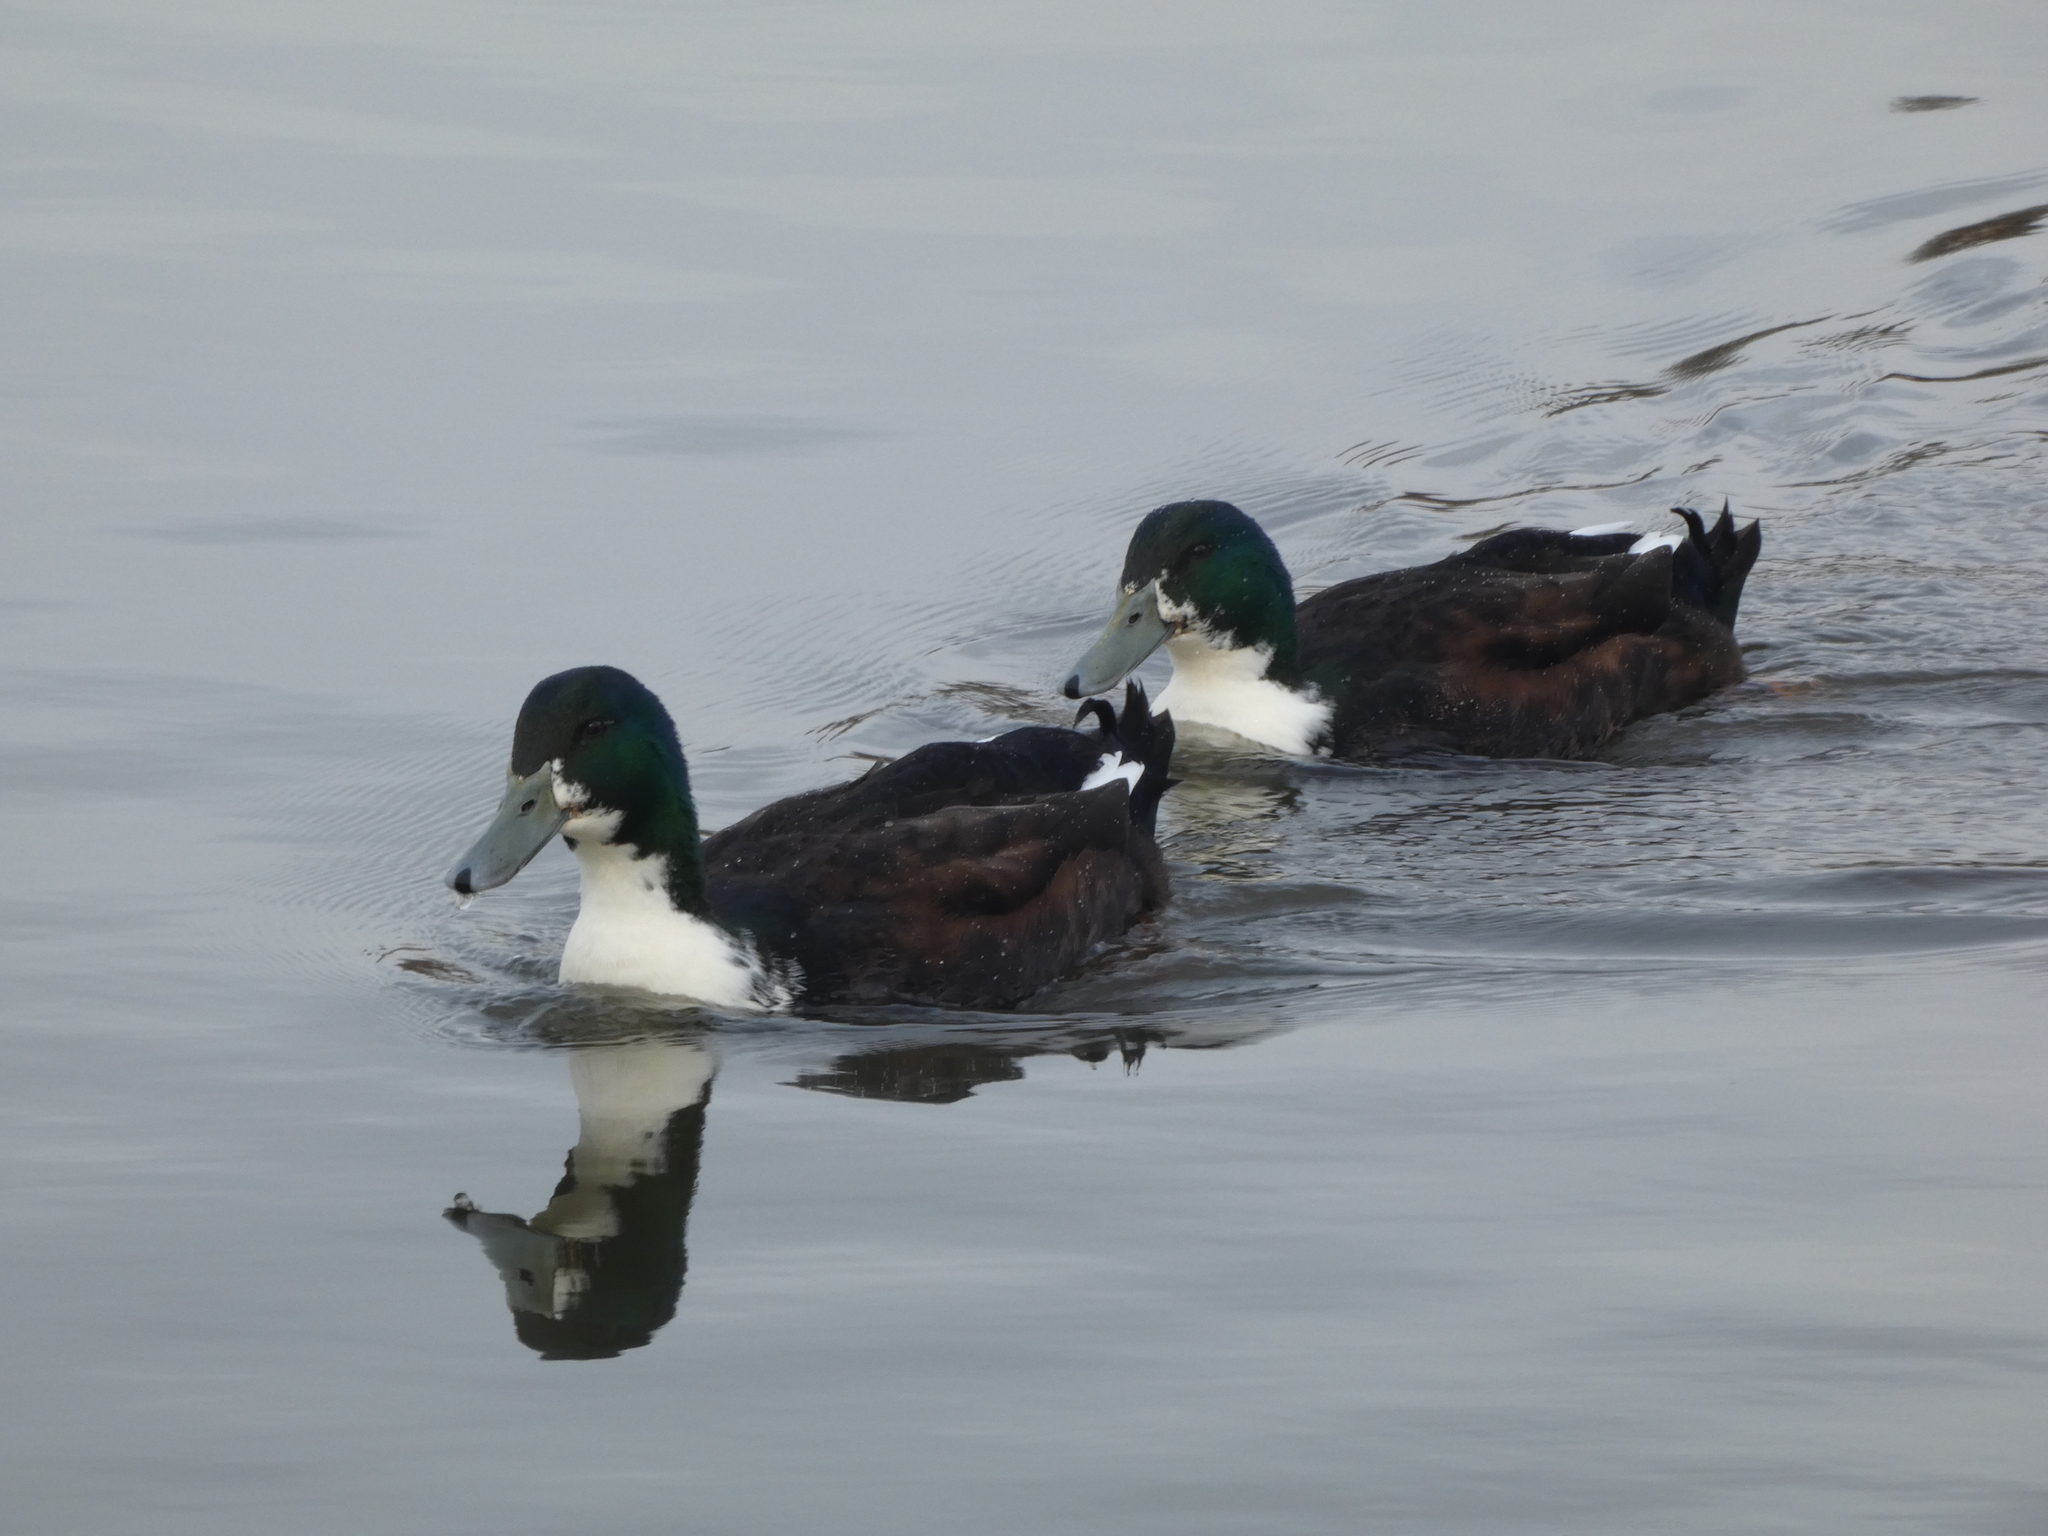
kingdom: Animalia
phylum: Chordata
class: Aves
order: Anseriformes
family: Anatidae
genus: Anas
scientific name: Anas platyrhynchos
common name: Mallard
